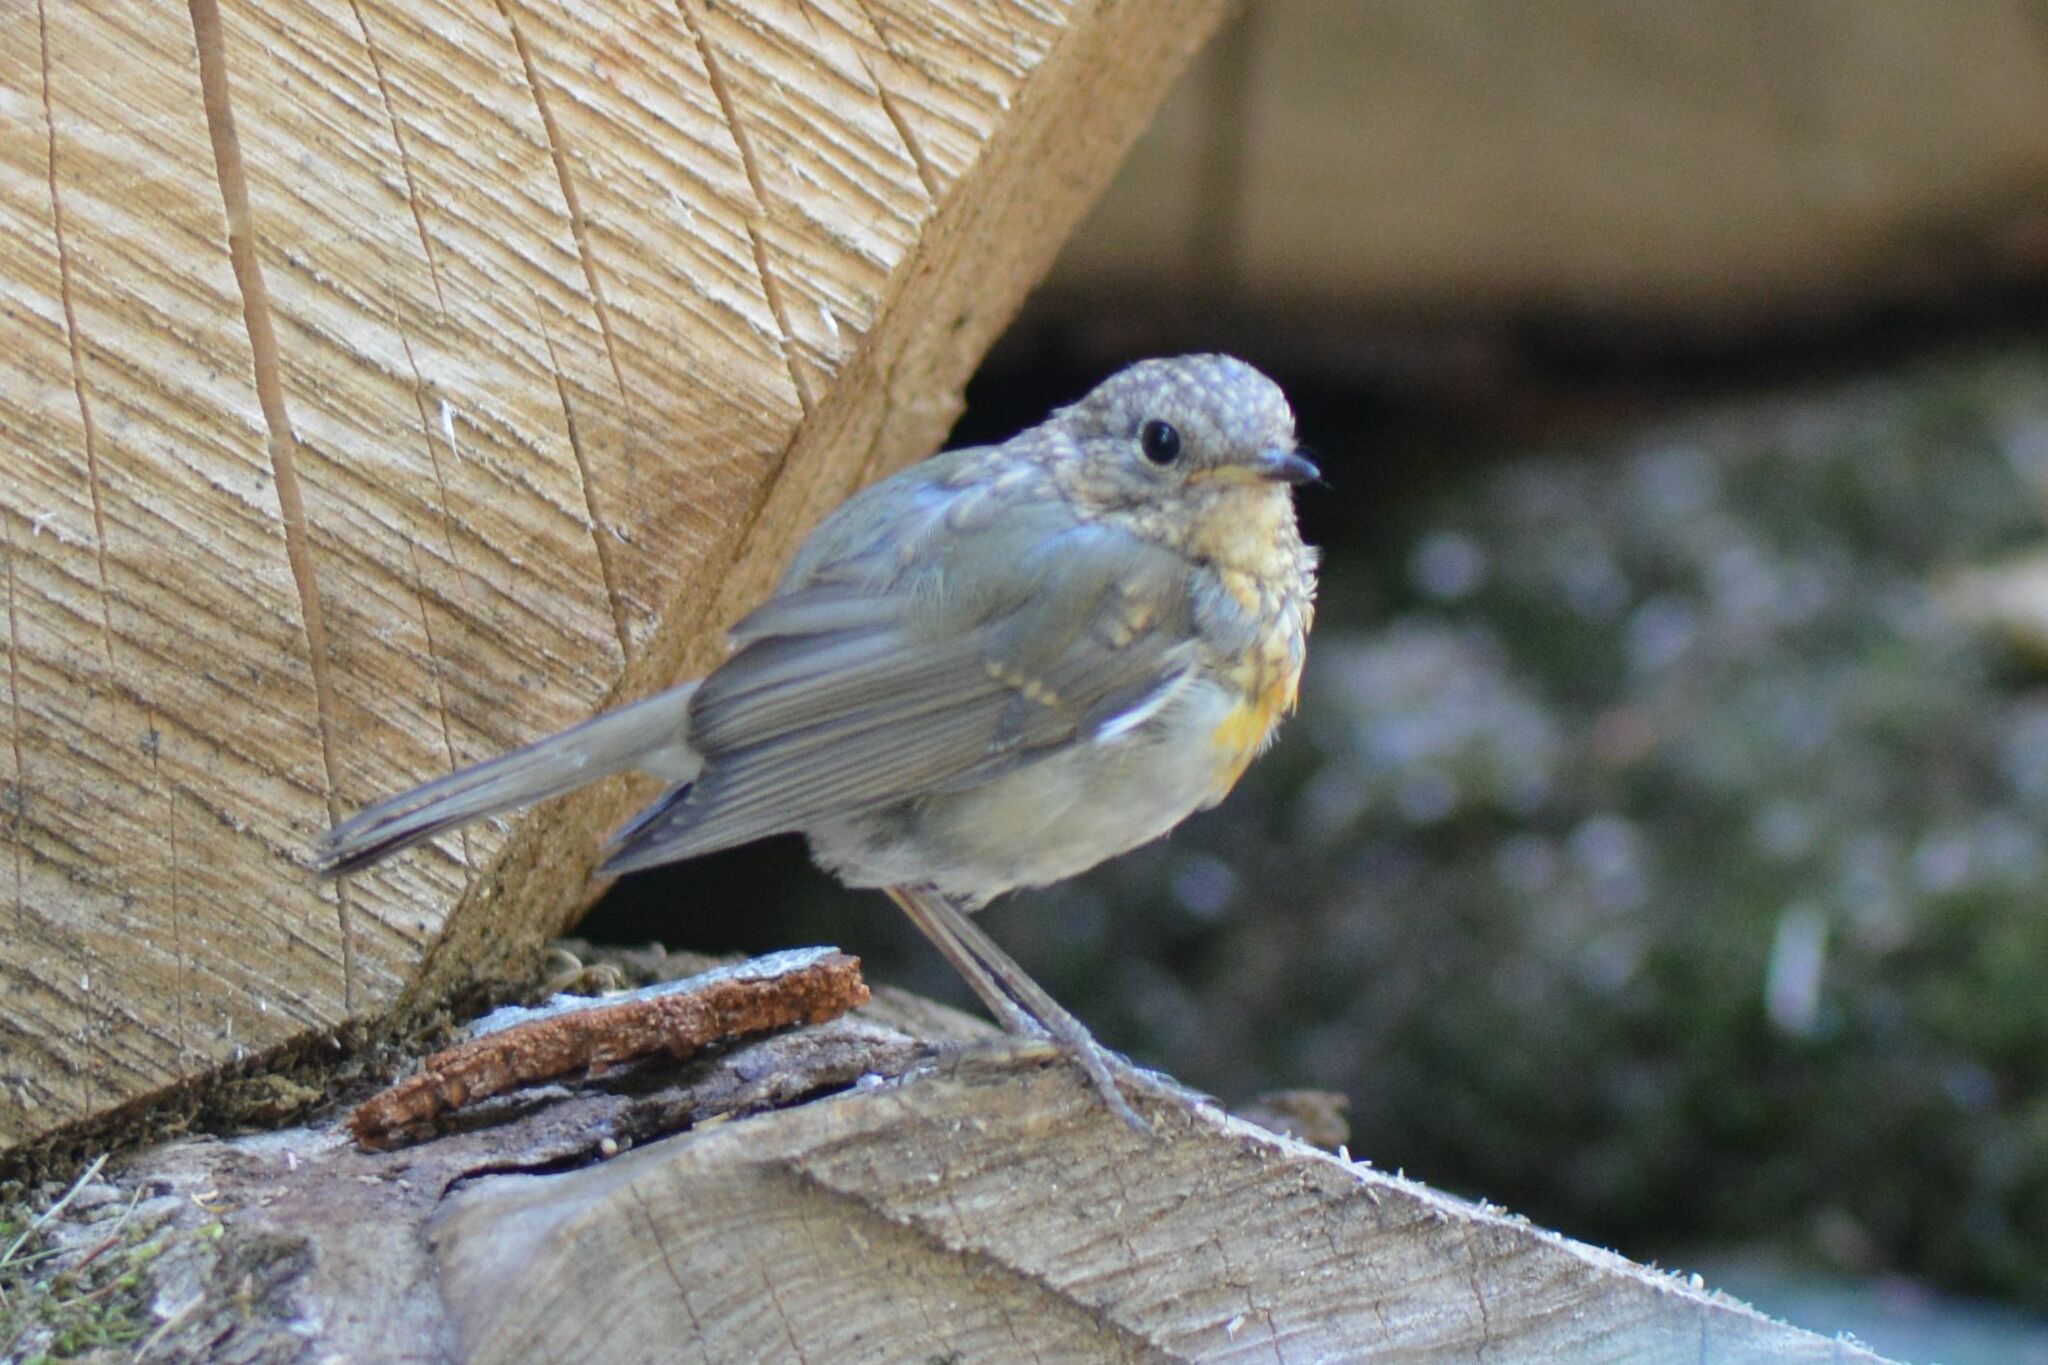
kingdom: Animalia
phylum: Chordata
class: Aves
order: Passeriformes
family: Muscicapidae
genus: Erithacus
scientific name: Erithacus rubecula
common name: European robin
